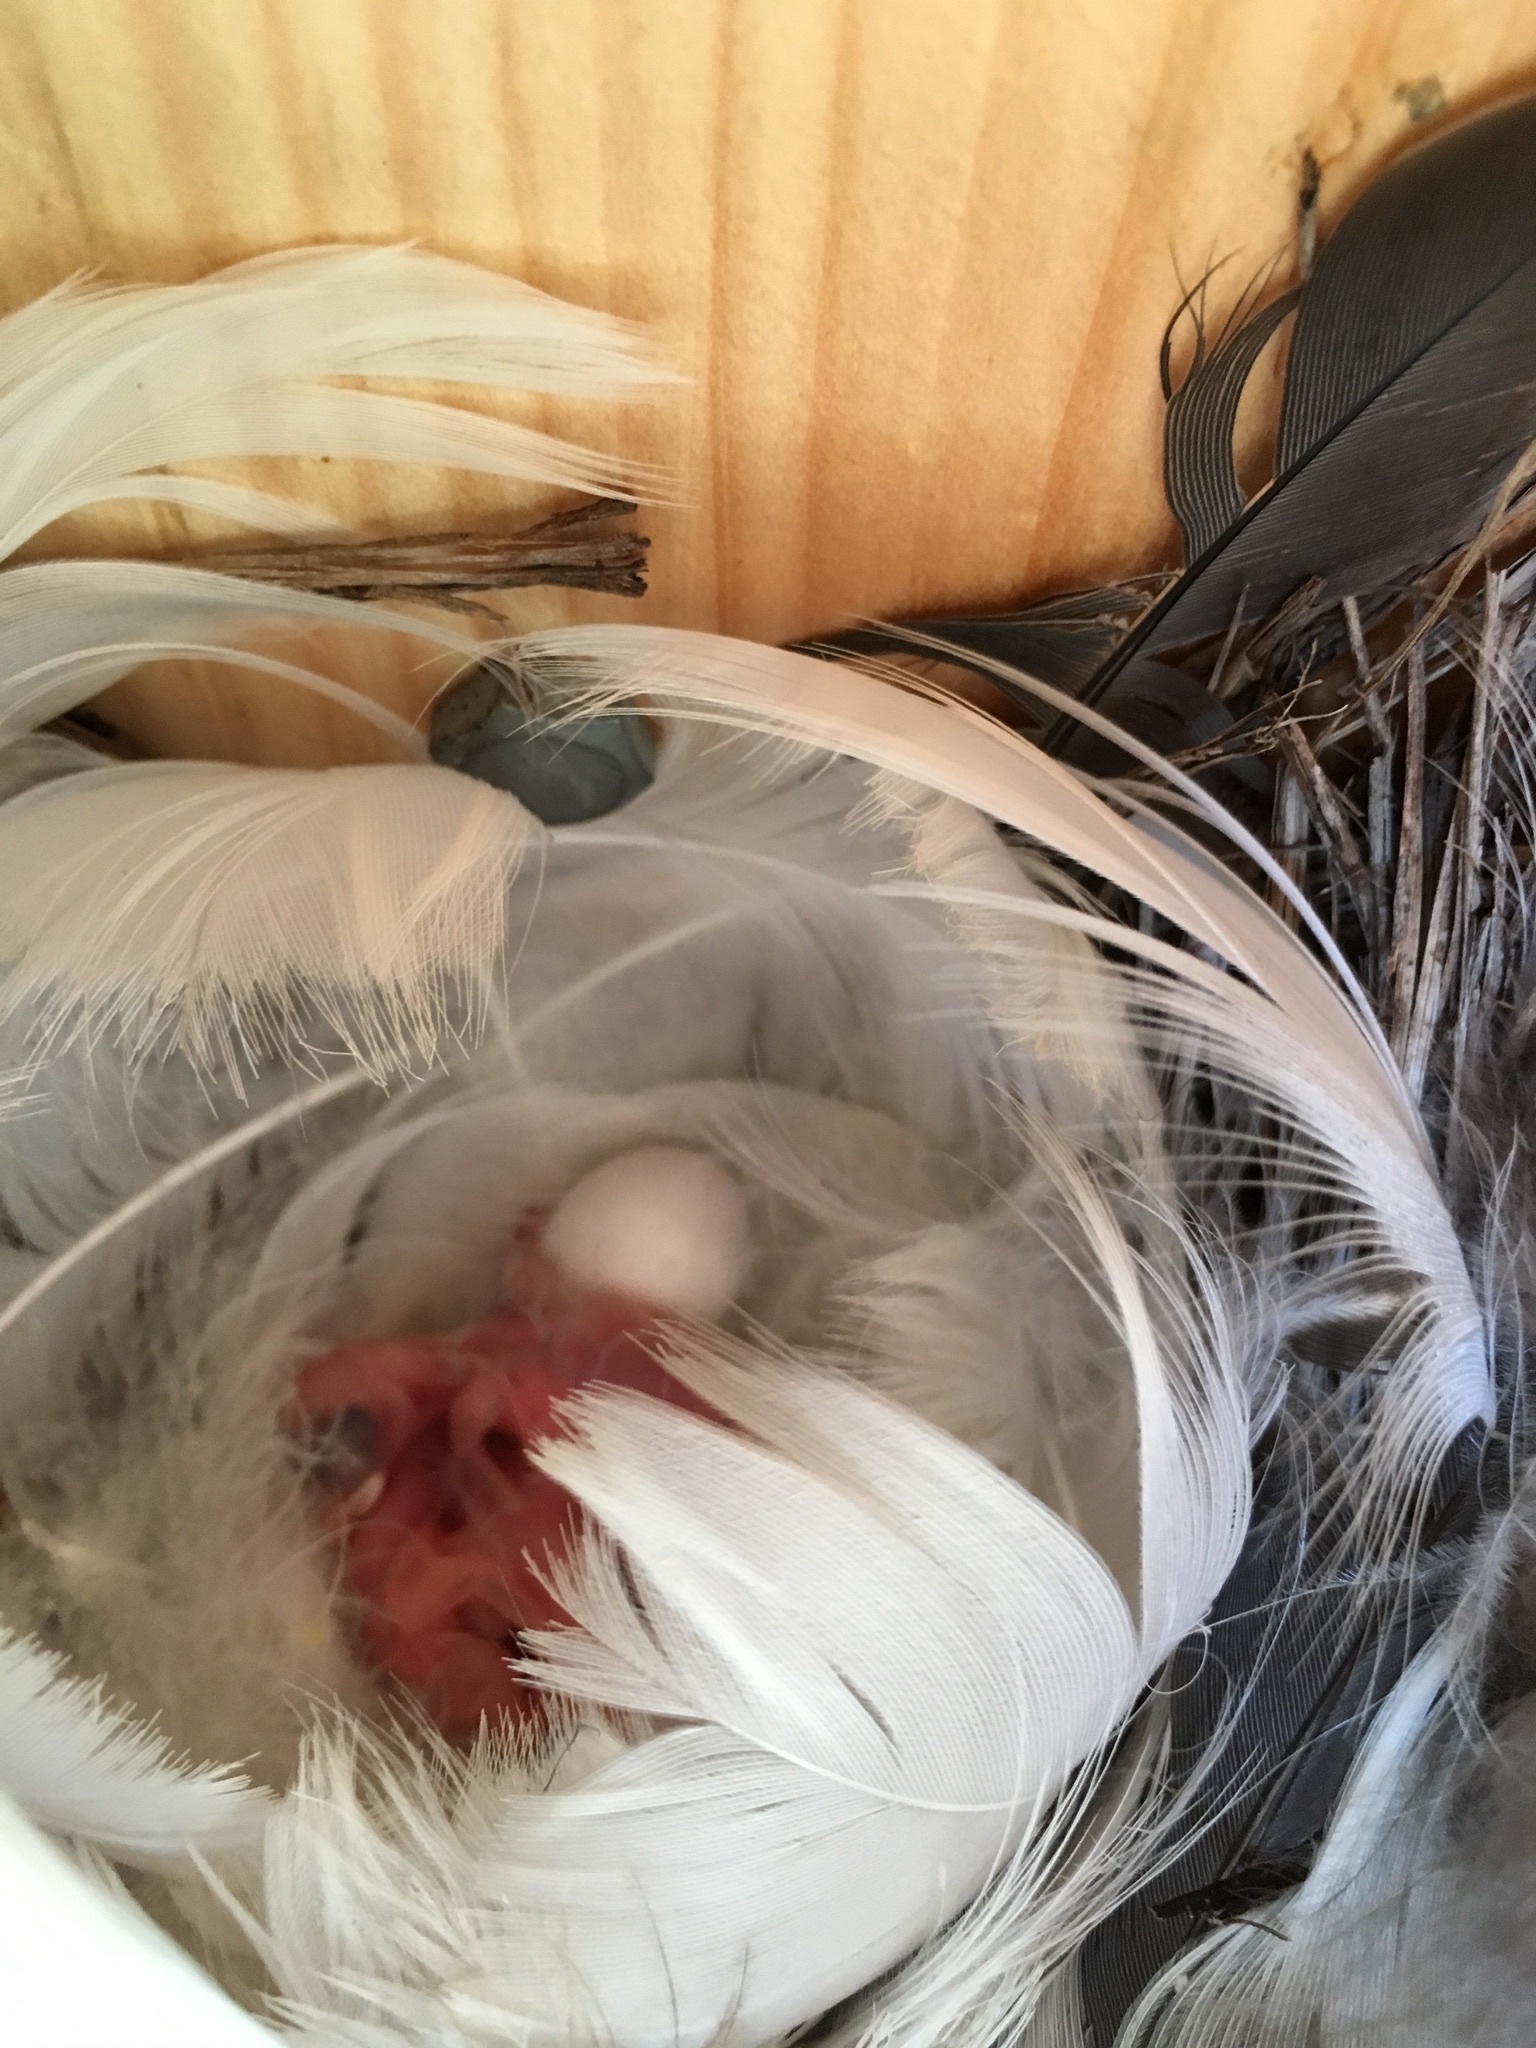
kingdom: Animalia
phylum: Chordata
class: Aves
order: Passeriformes
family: Hirundinidae
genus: Tachycineta
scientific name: Tachycineta bicolor
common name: Tree swallow
